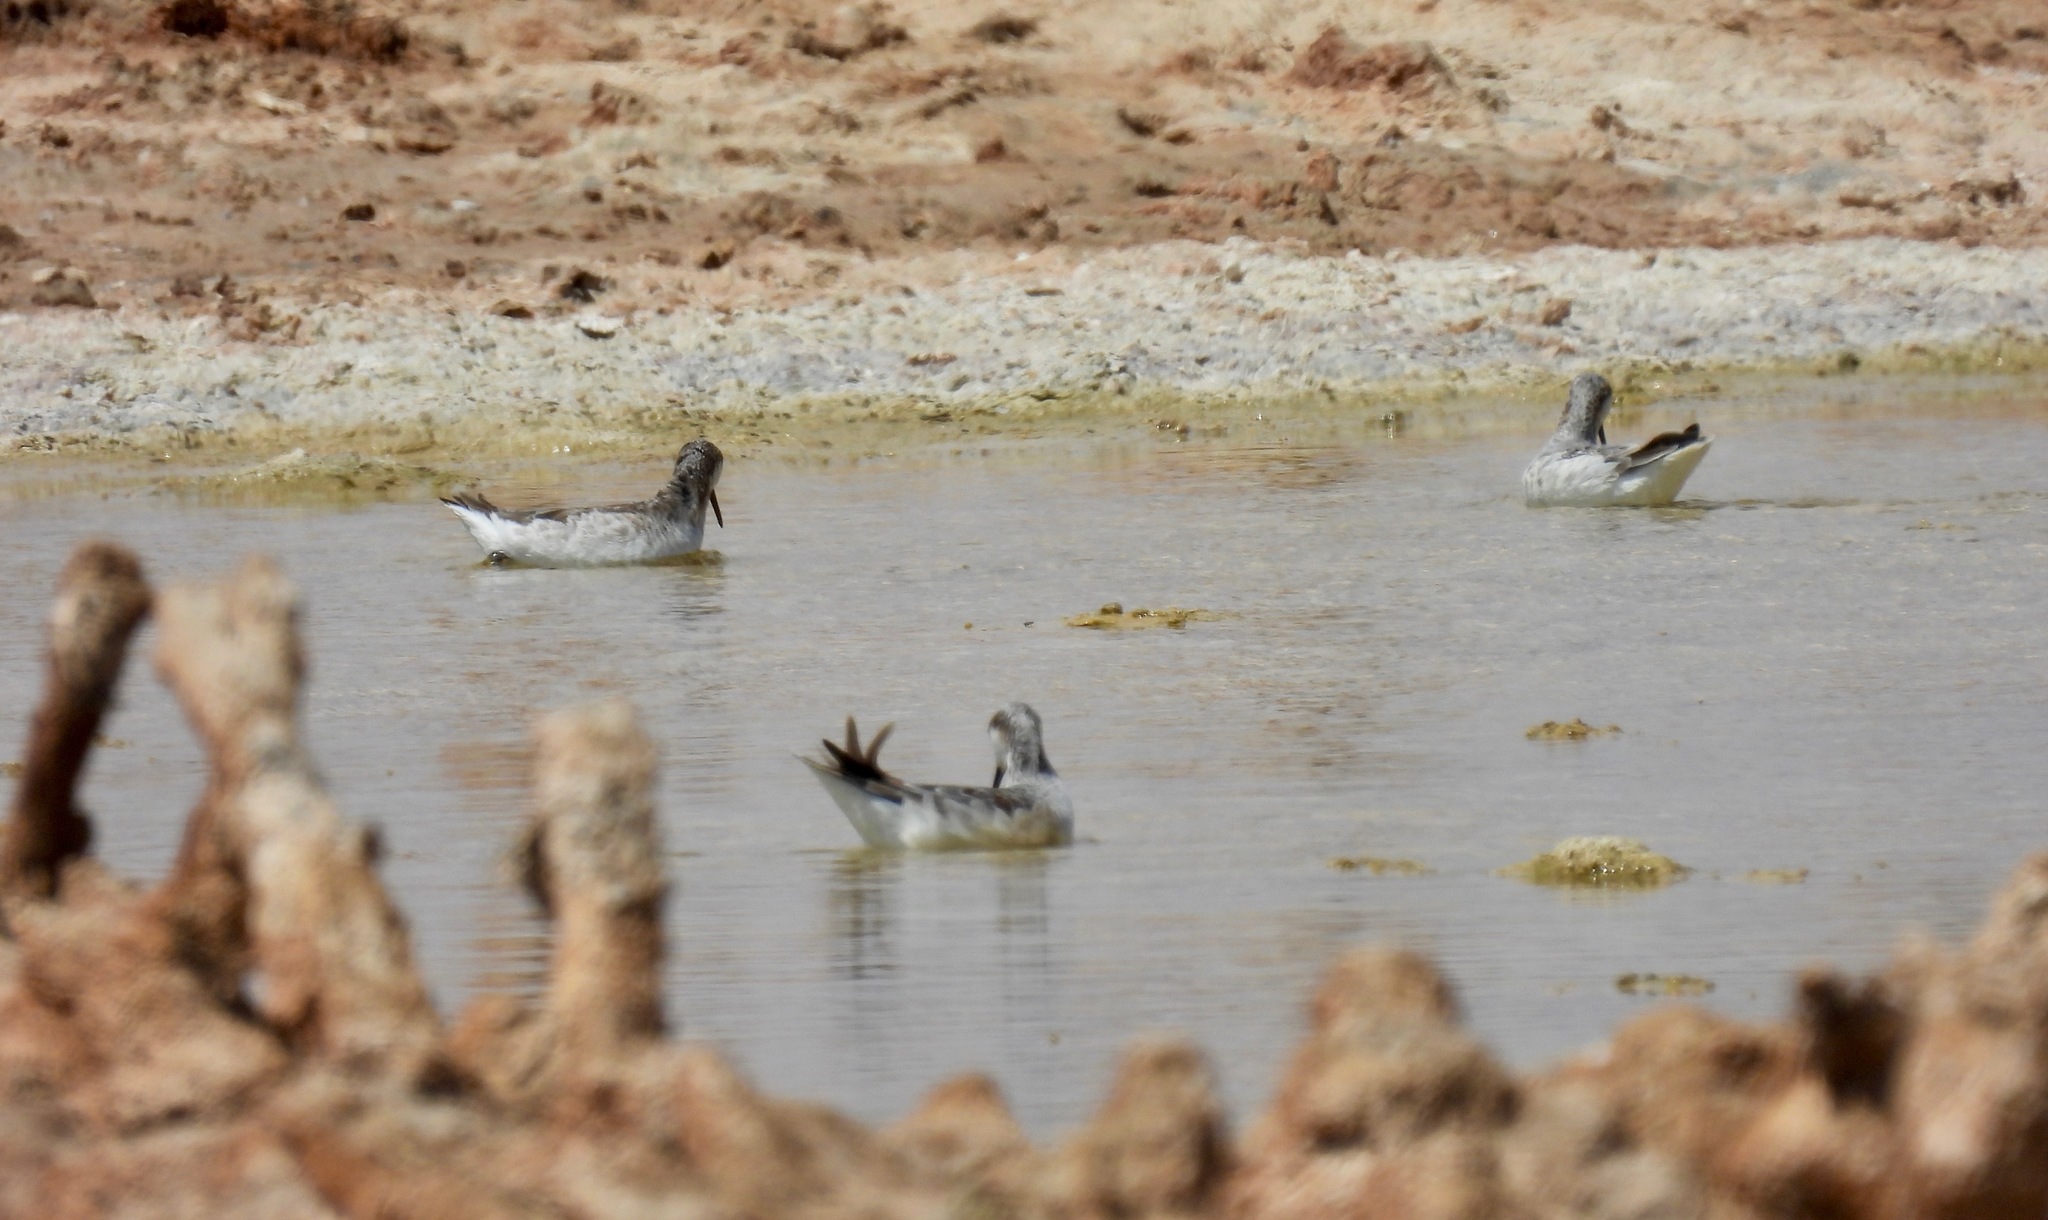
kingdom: Animalia
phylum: Chordata
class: Aves
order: Charadriiformes
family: Scolopacidae
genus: Phalaropus
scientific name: Phalaropus tricolor
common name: Wilson's phalarope
